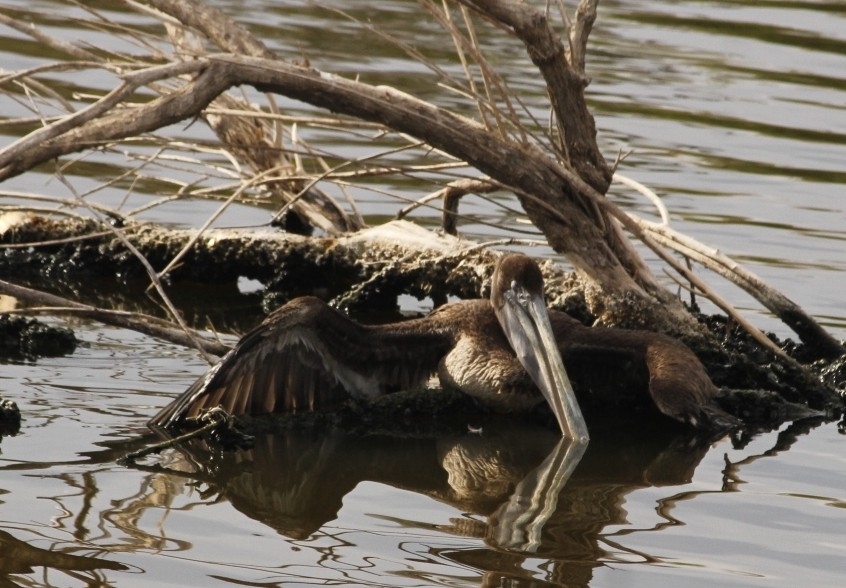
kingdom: Animalia
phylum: Chordata
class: Aves
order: Pelecaniformes
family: Pelecanidae
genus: Pelecanus
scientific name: Pelecanus occidentalis
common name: Brown pelican
